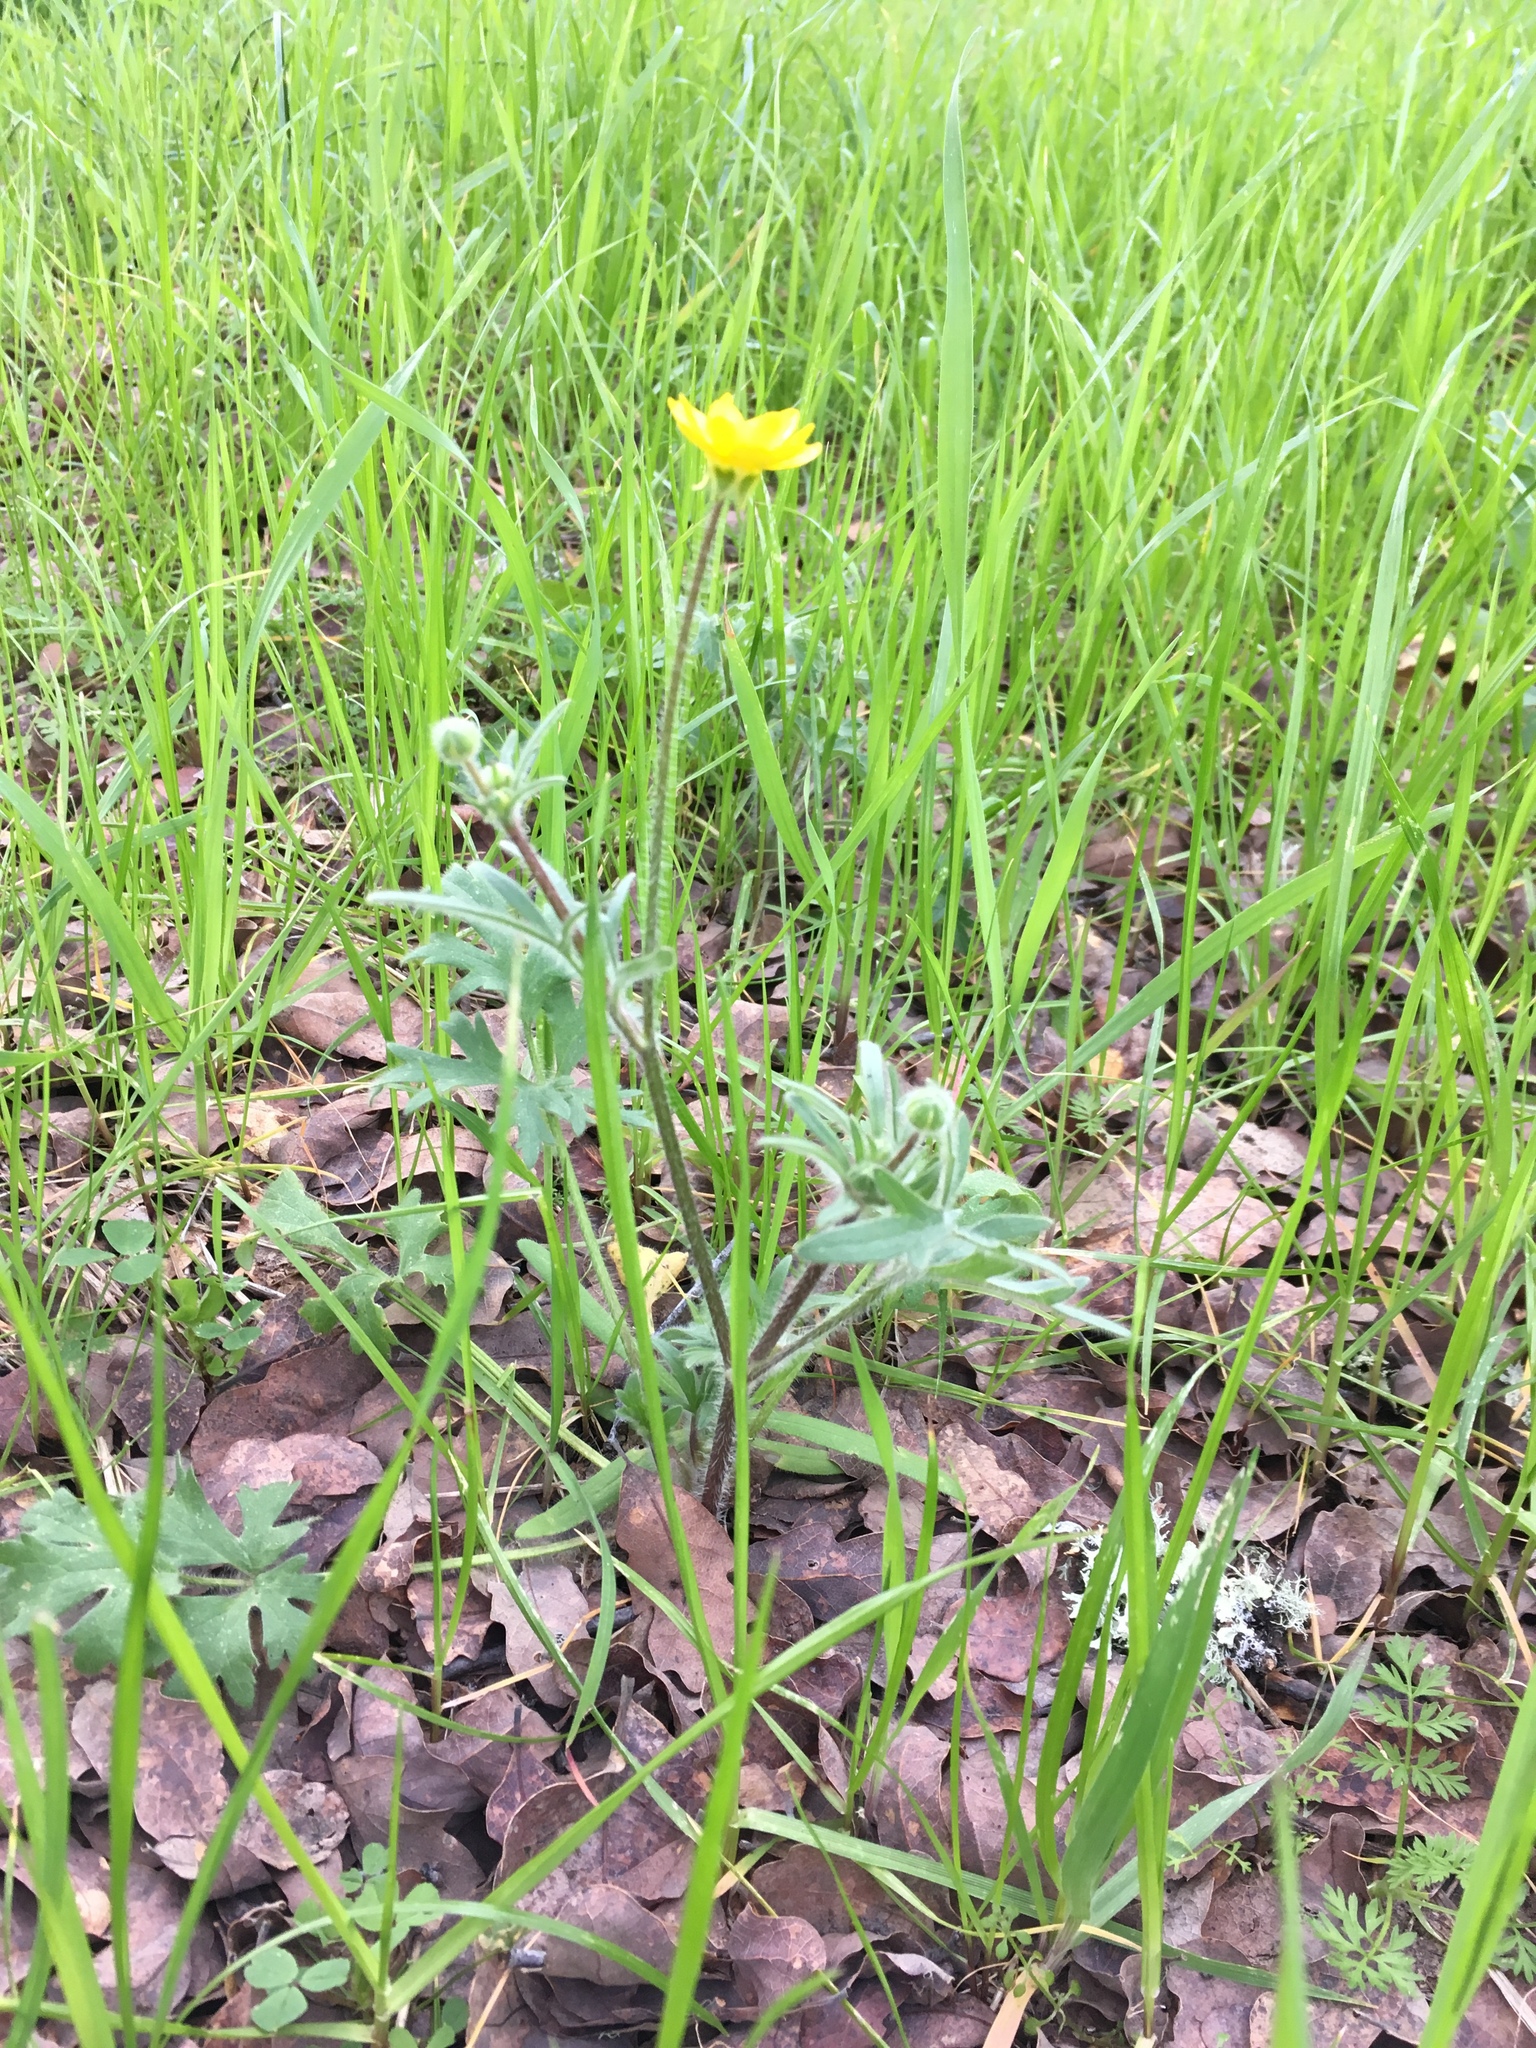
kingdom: Plantae
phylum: Tracheophyta
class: Magnoliopsida
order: Ranunculales
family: Ranunculaceae
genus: Ranunculus
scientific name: Ranunculus californicus
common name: California buttercup
